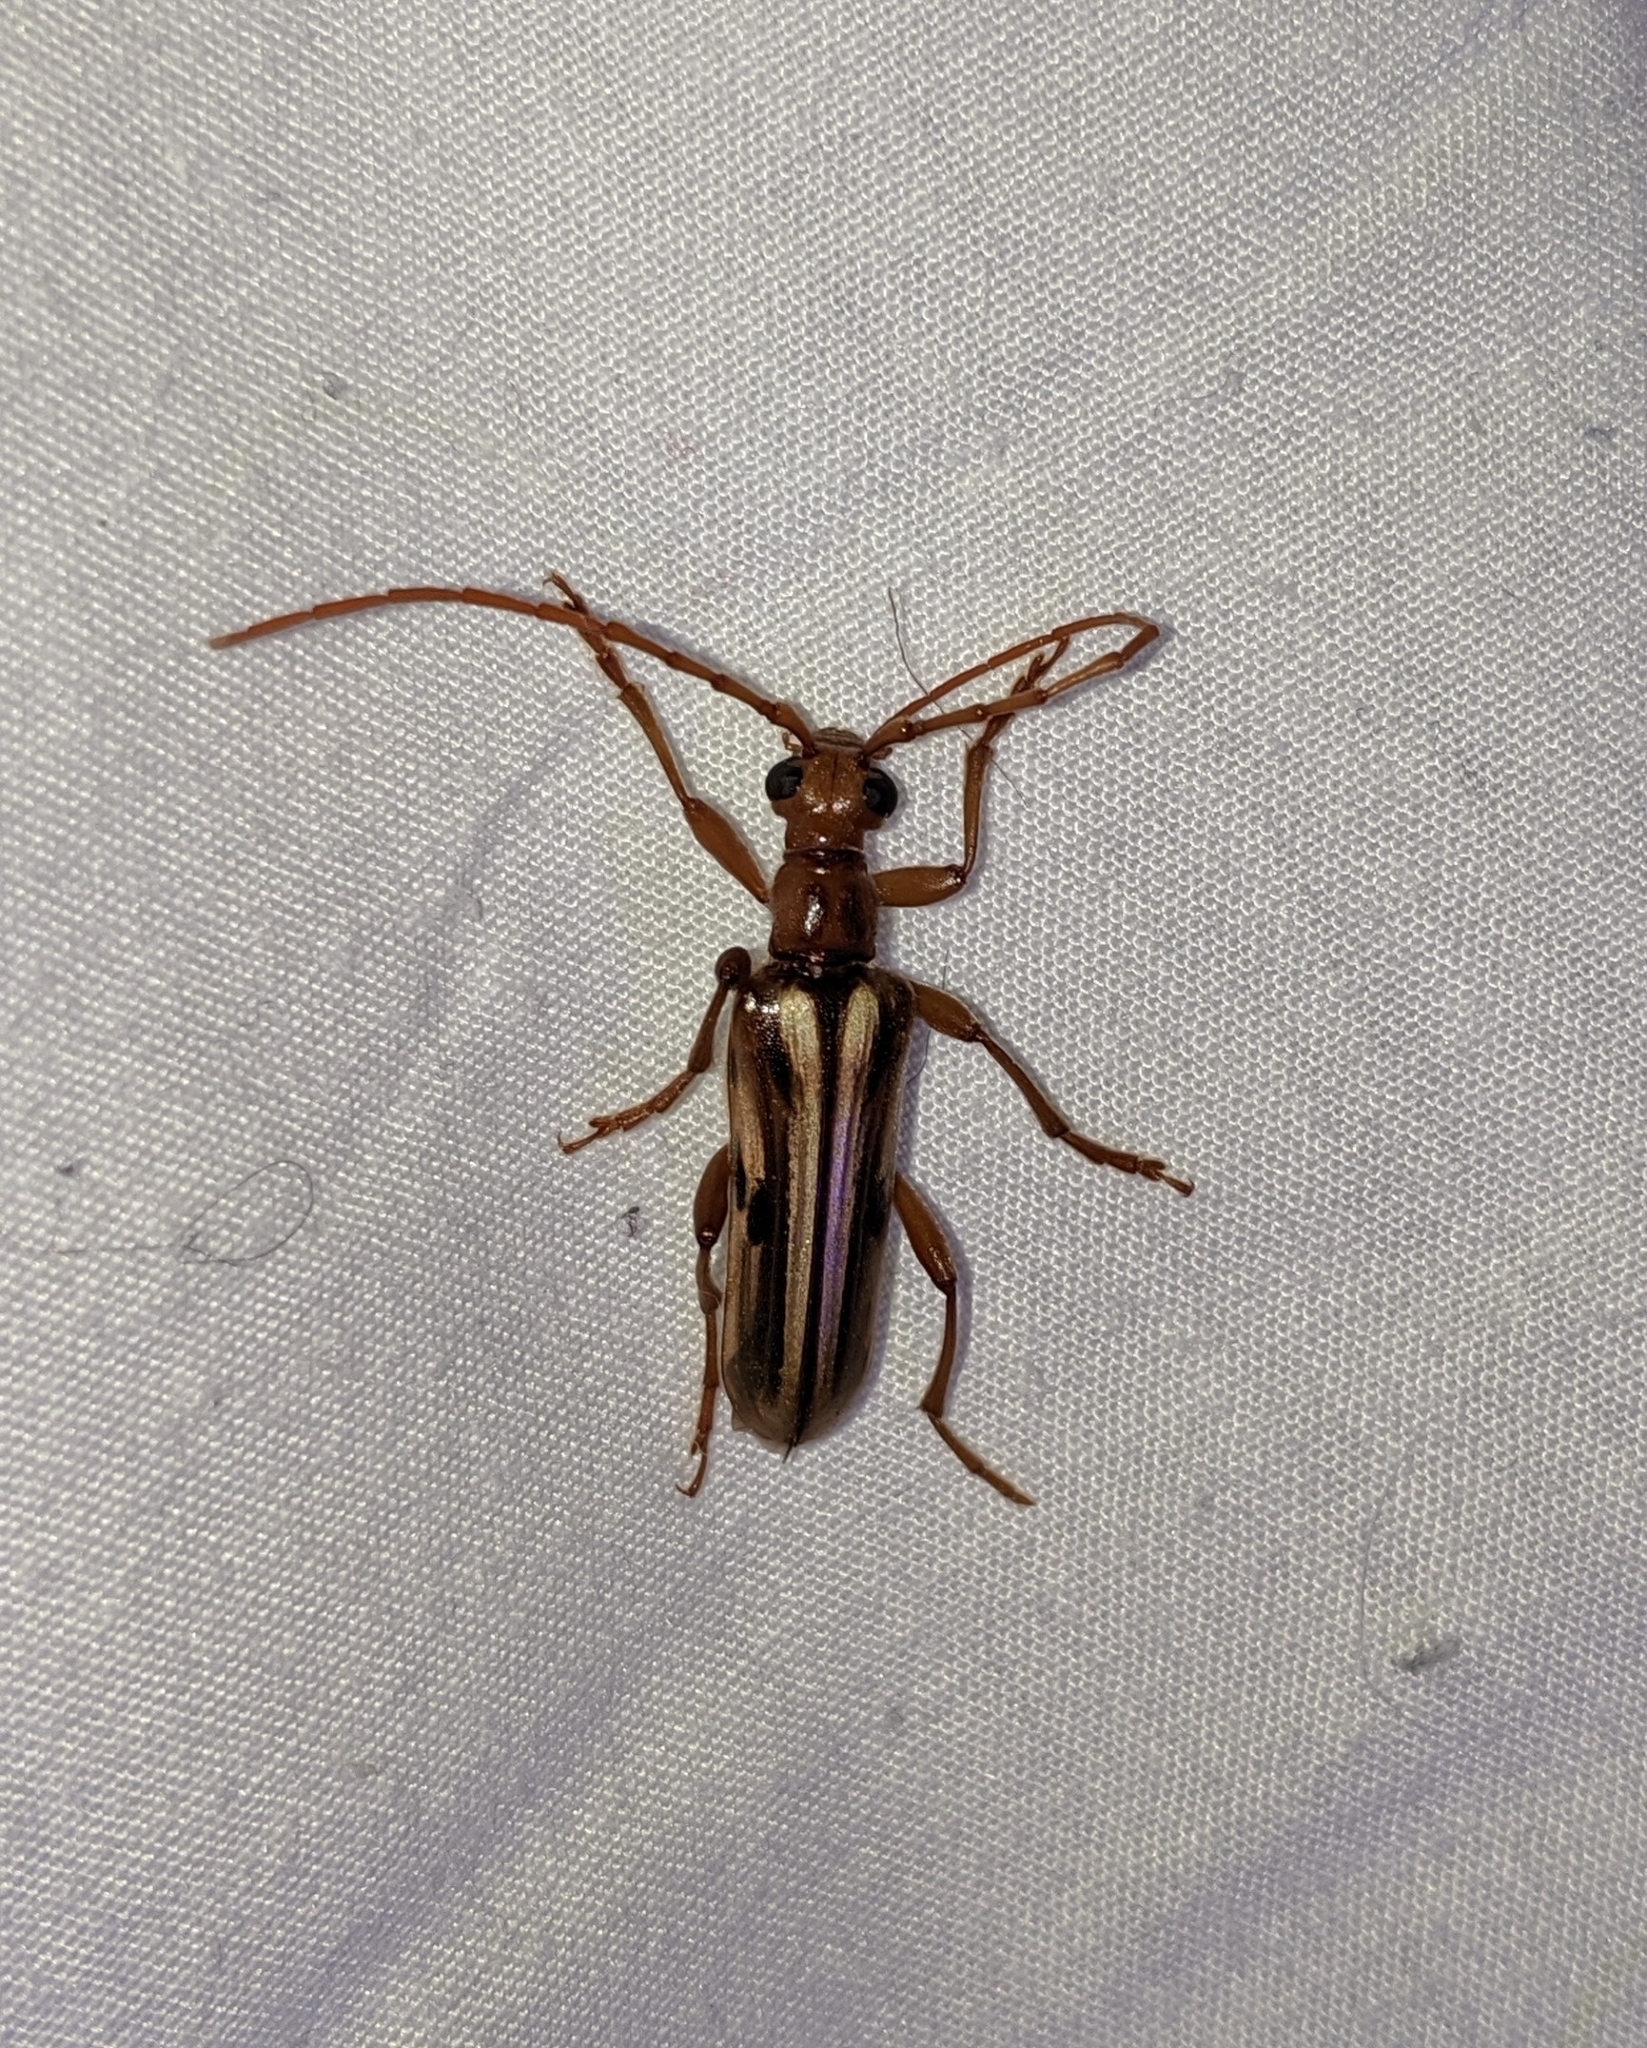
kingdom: Animalia
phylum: Arthropoda
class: Insecta
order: Coleoptera
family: Cerambycidae
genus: Ortholeptura
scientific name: Ortholeptura valida
